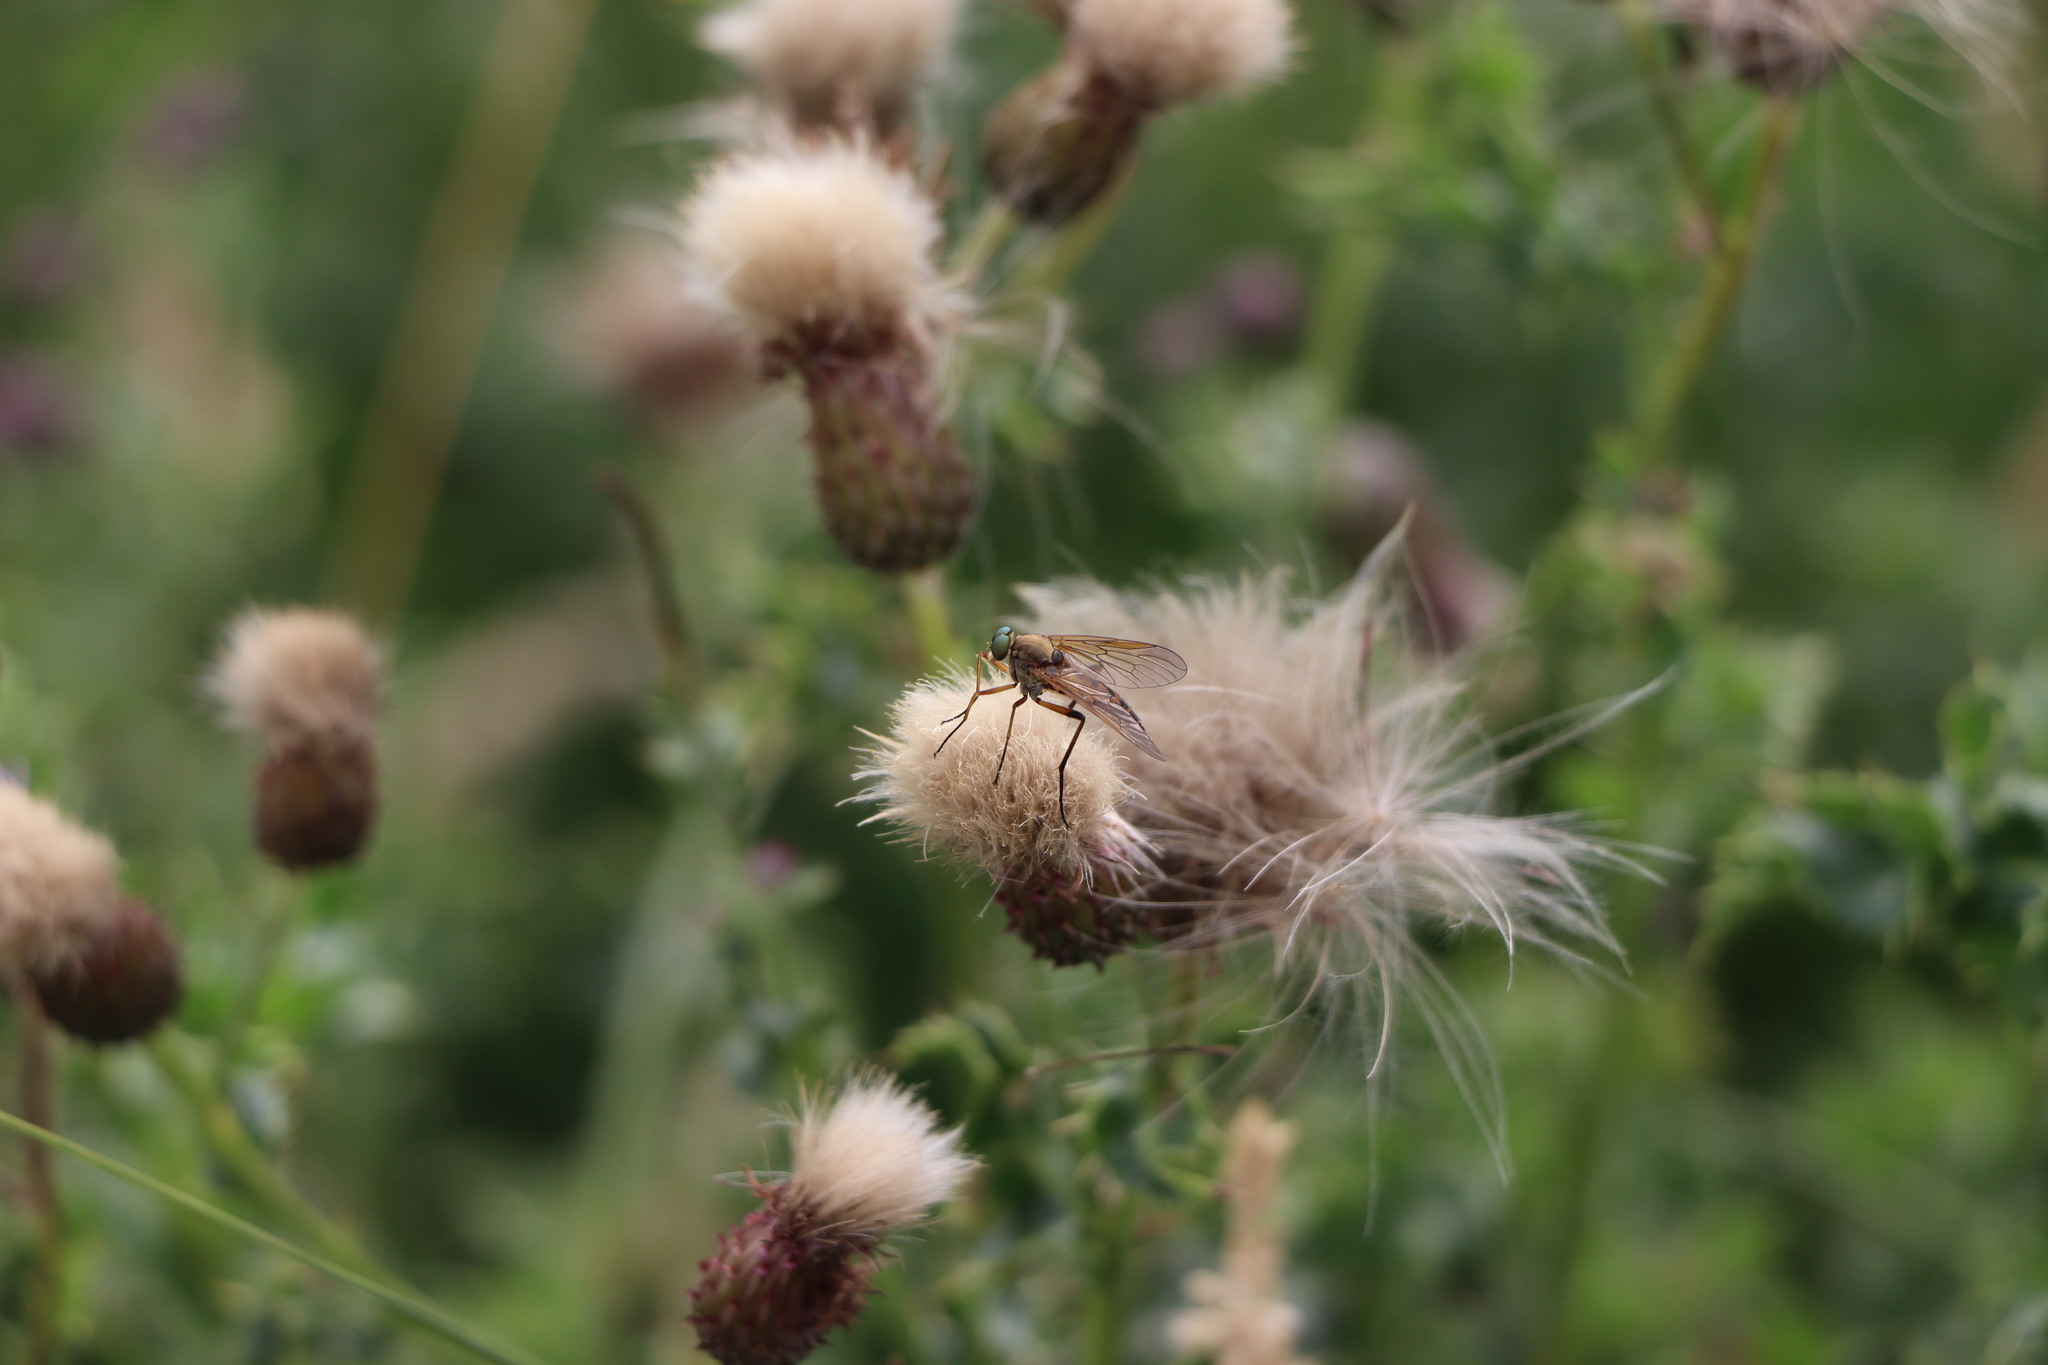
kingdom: Animalia
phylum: Arthropoda
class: Insecta
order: Diptera
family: Rhagionidae
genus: Rhagio
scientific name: Rhagio tringaria
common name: Marsh snipefly
